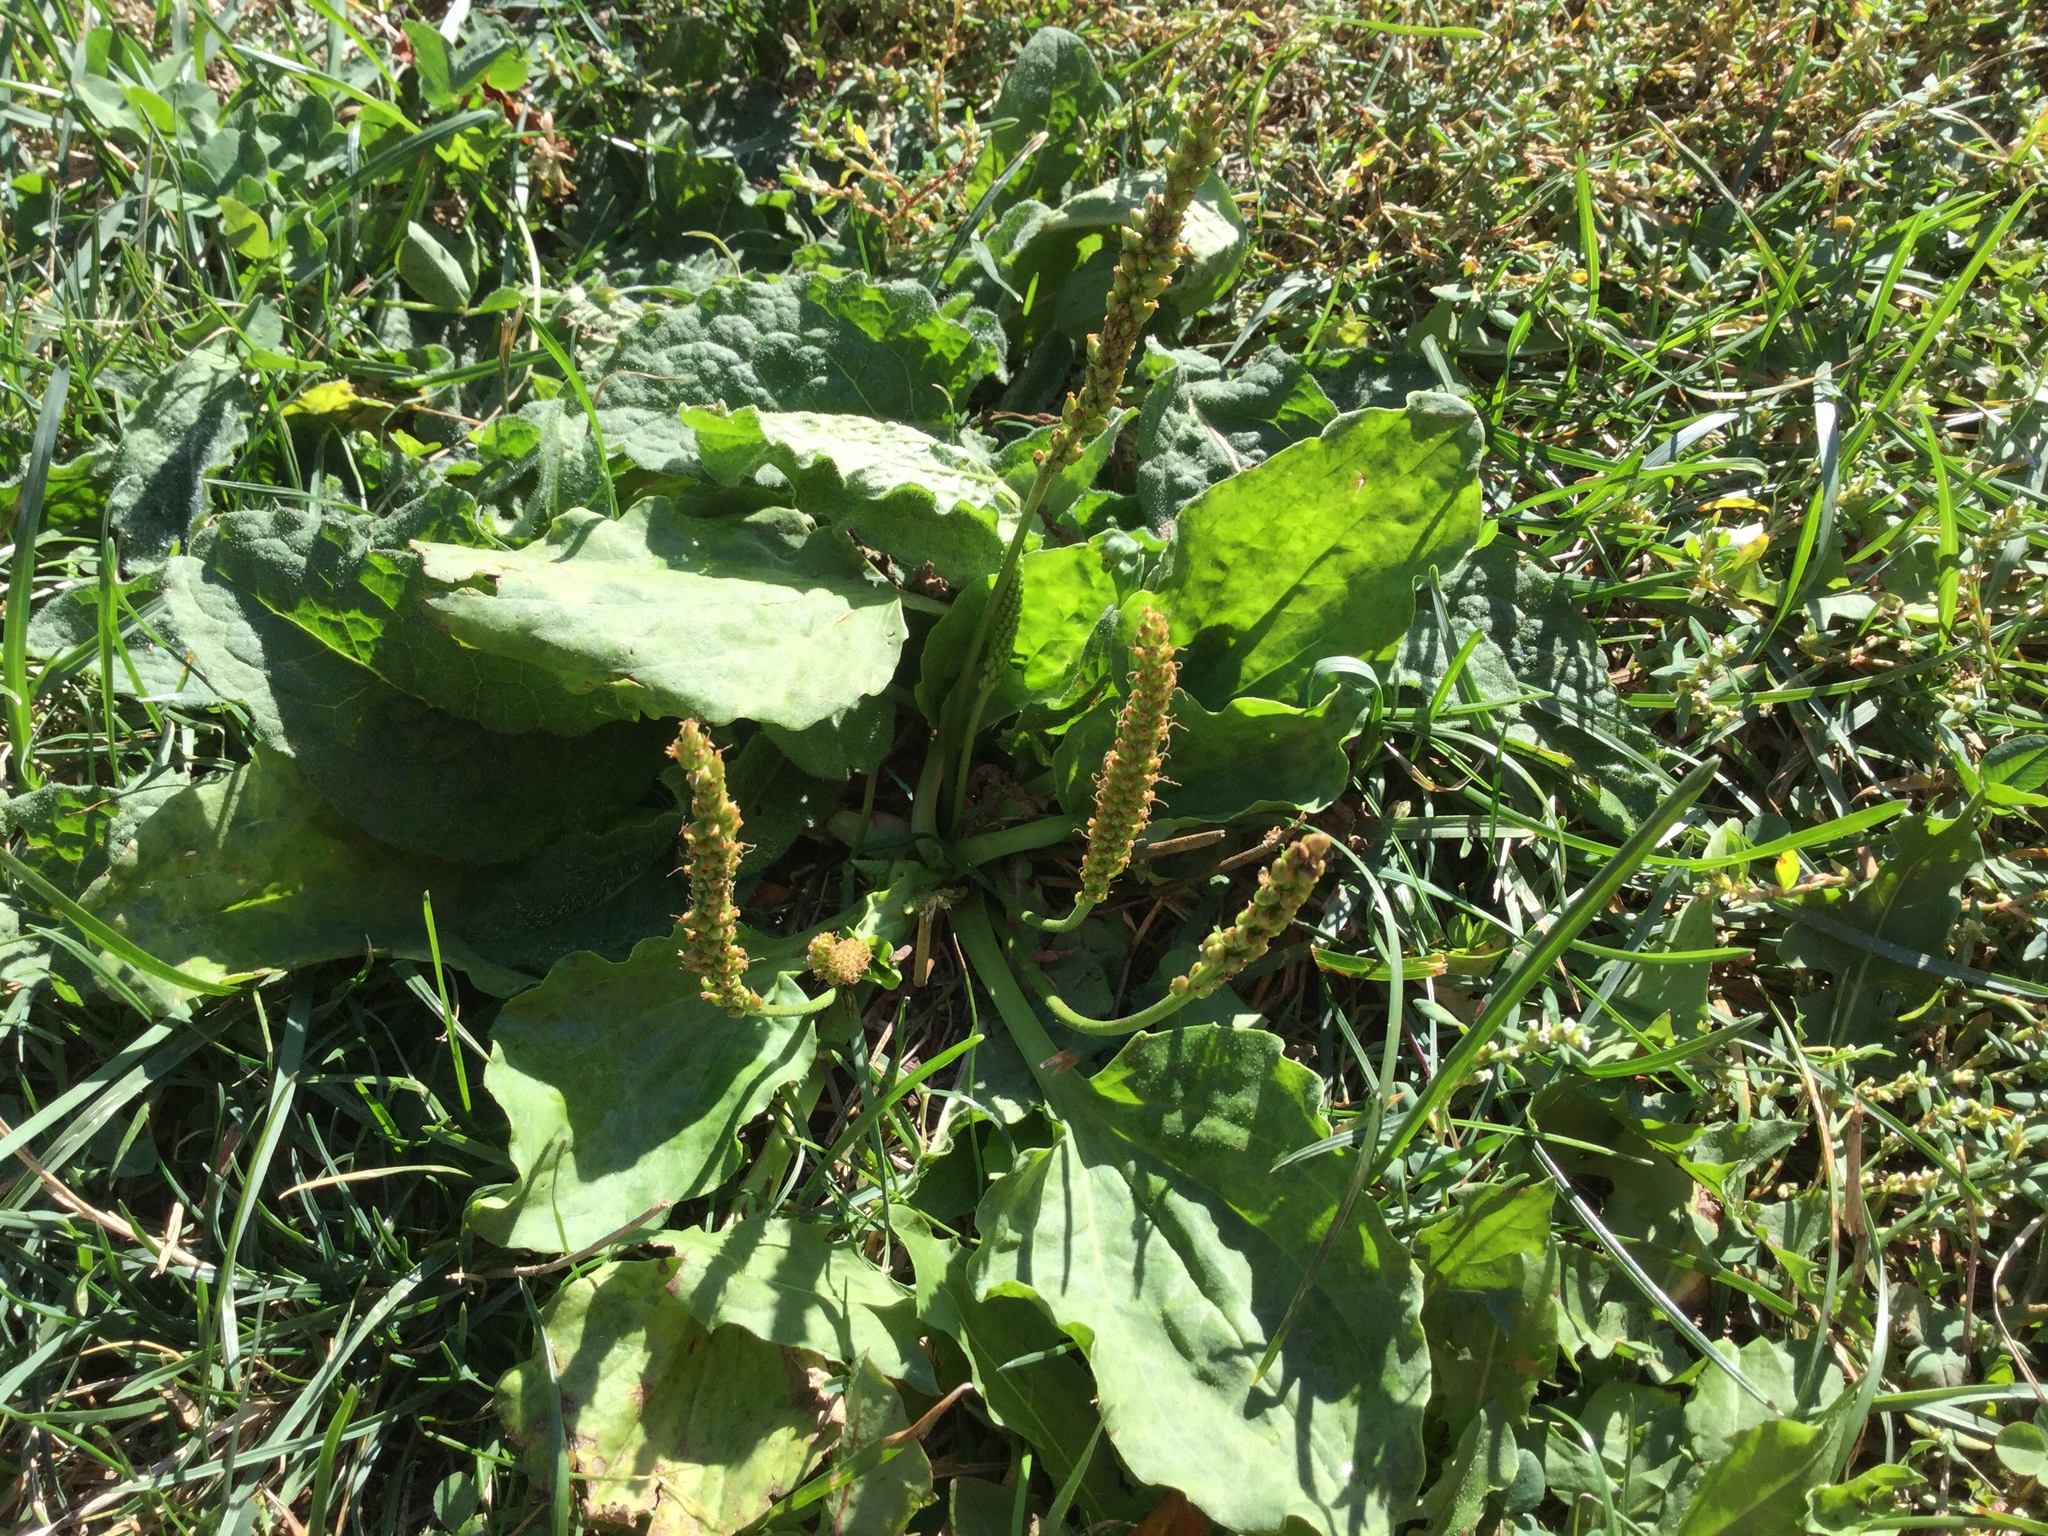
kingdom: Plantae
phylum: Tracheophyta
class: Magnoliopsida
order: Lamiales
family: Plantaginaceae
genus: Plantago
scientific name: Plantago major
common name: Common plantain
